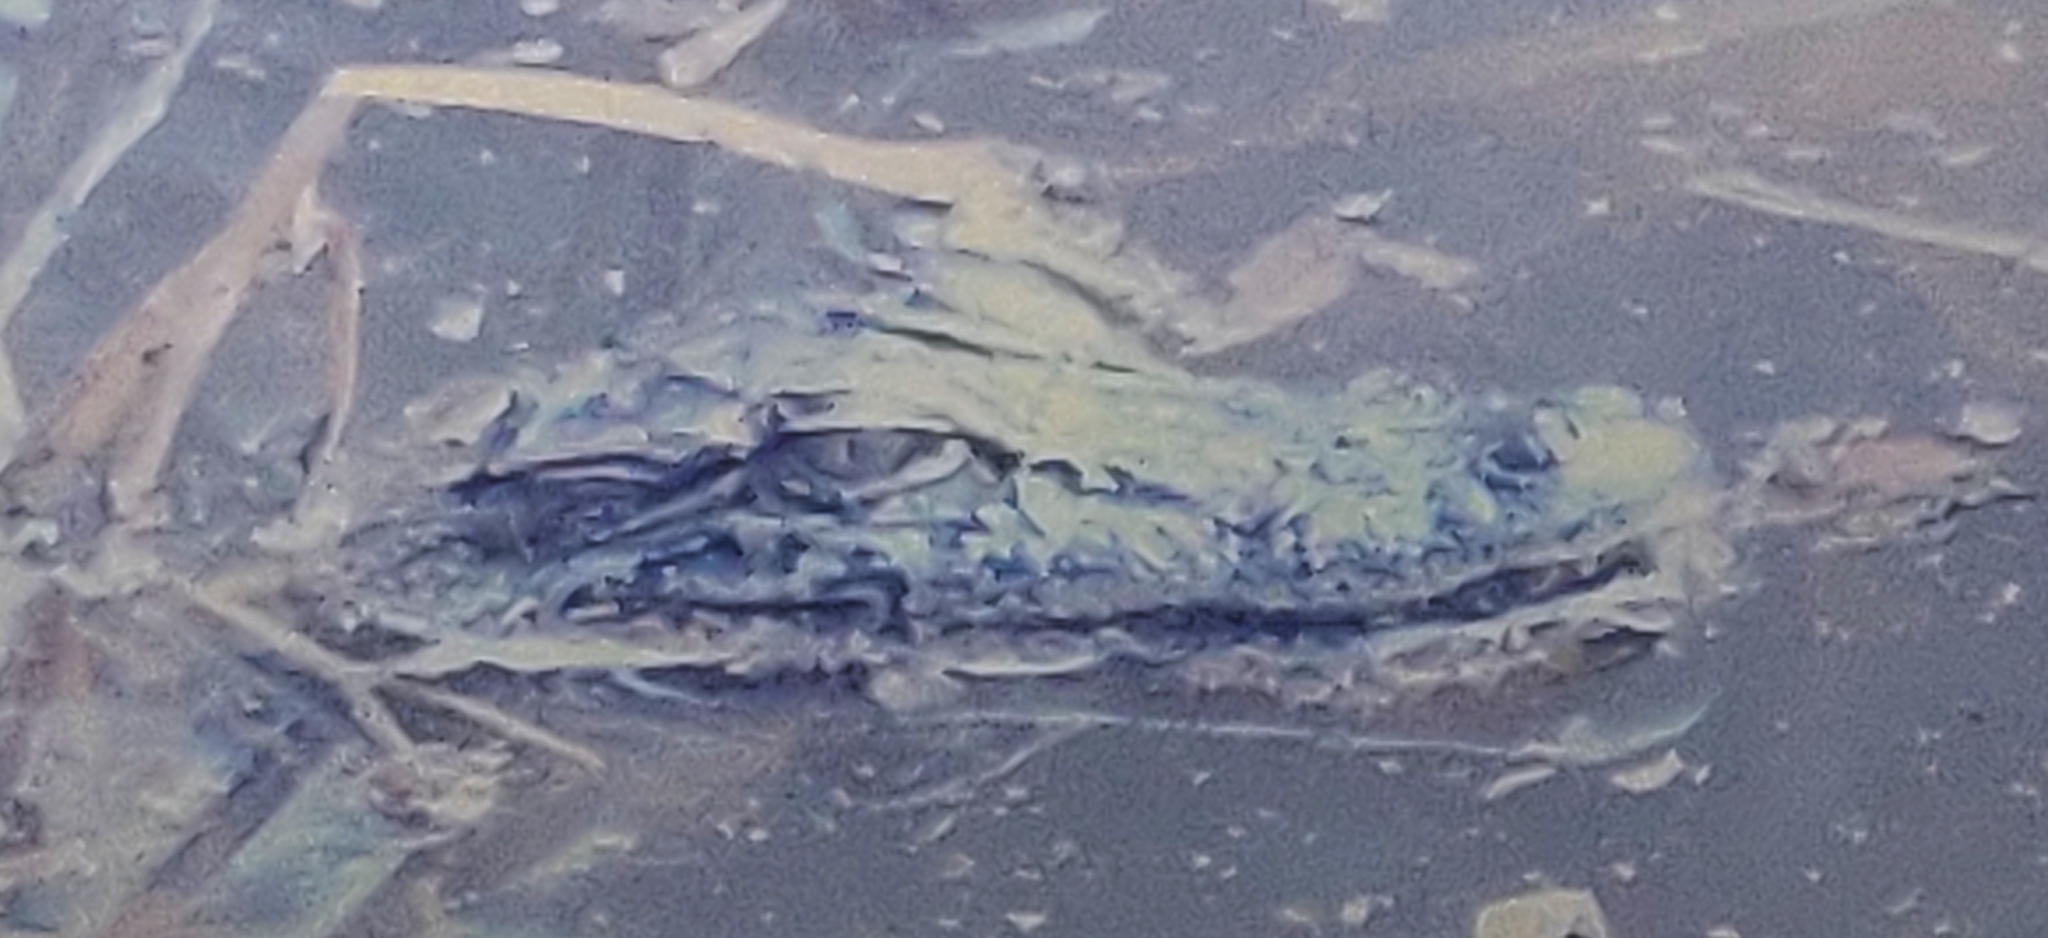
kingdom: Animalia
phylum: Chordata
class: Crocodylia
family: Alligatoridae
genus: Alligator
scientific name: Alligator mississippiensis
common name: American alligator
